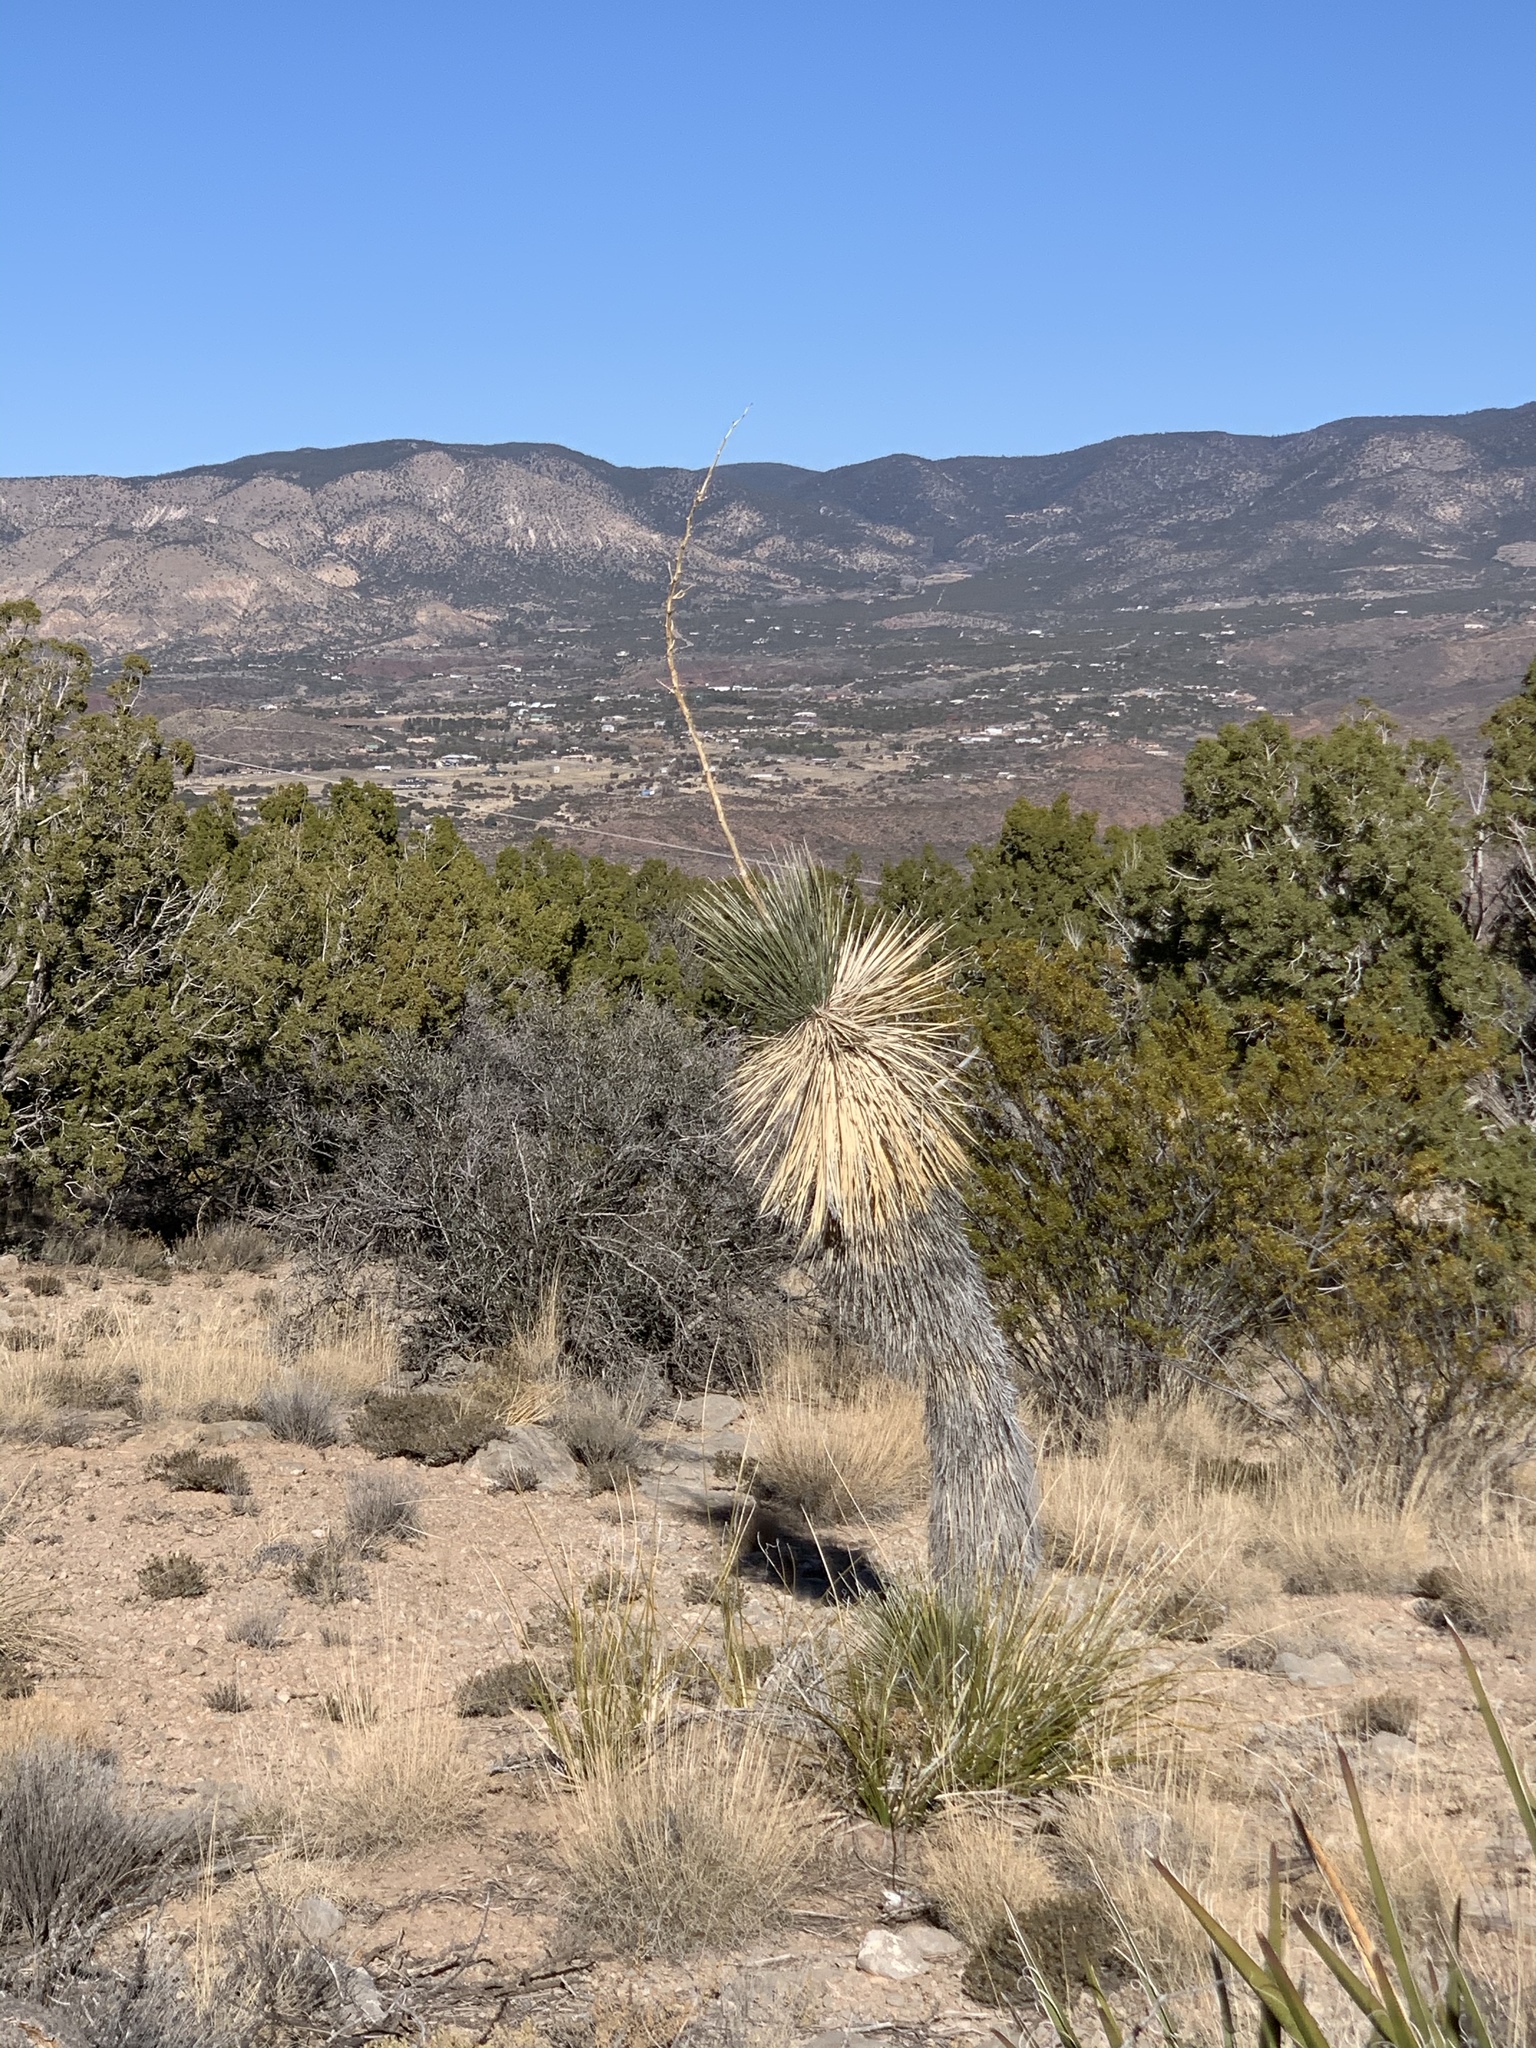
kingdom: Plantae
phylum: Tracheophyta
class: Liliopsida
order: Asparagales
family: Asparagaceae
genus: Yucca
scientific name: Yucca elata
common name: Palmella
